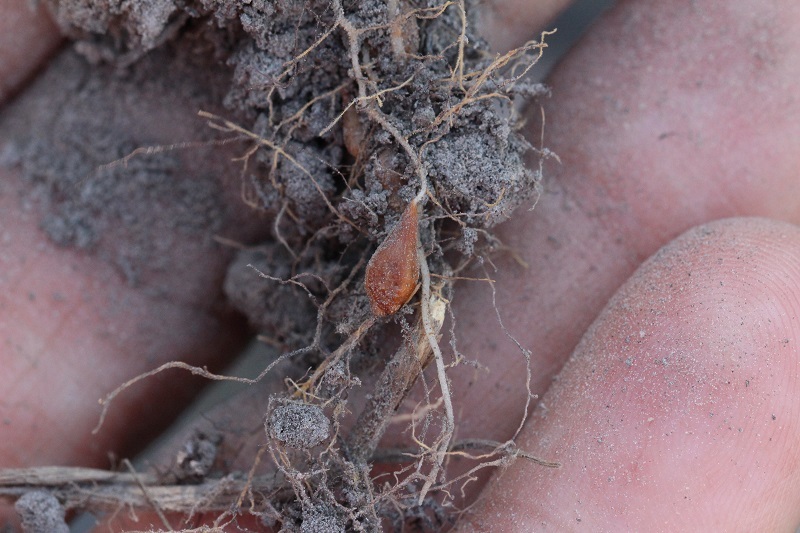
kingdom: Plantae
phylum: Tracheophyta
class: Magnoliopsida
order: Oxalidales
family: Oxalidaceae
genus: Oxalis
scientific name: Oxalis psilopoda
